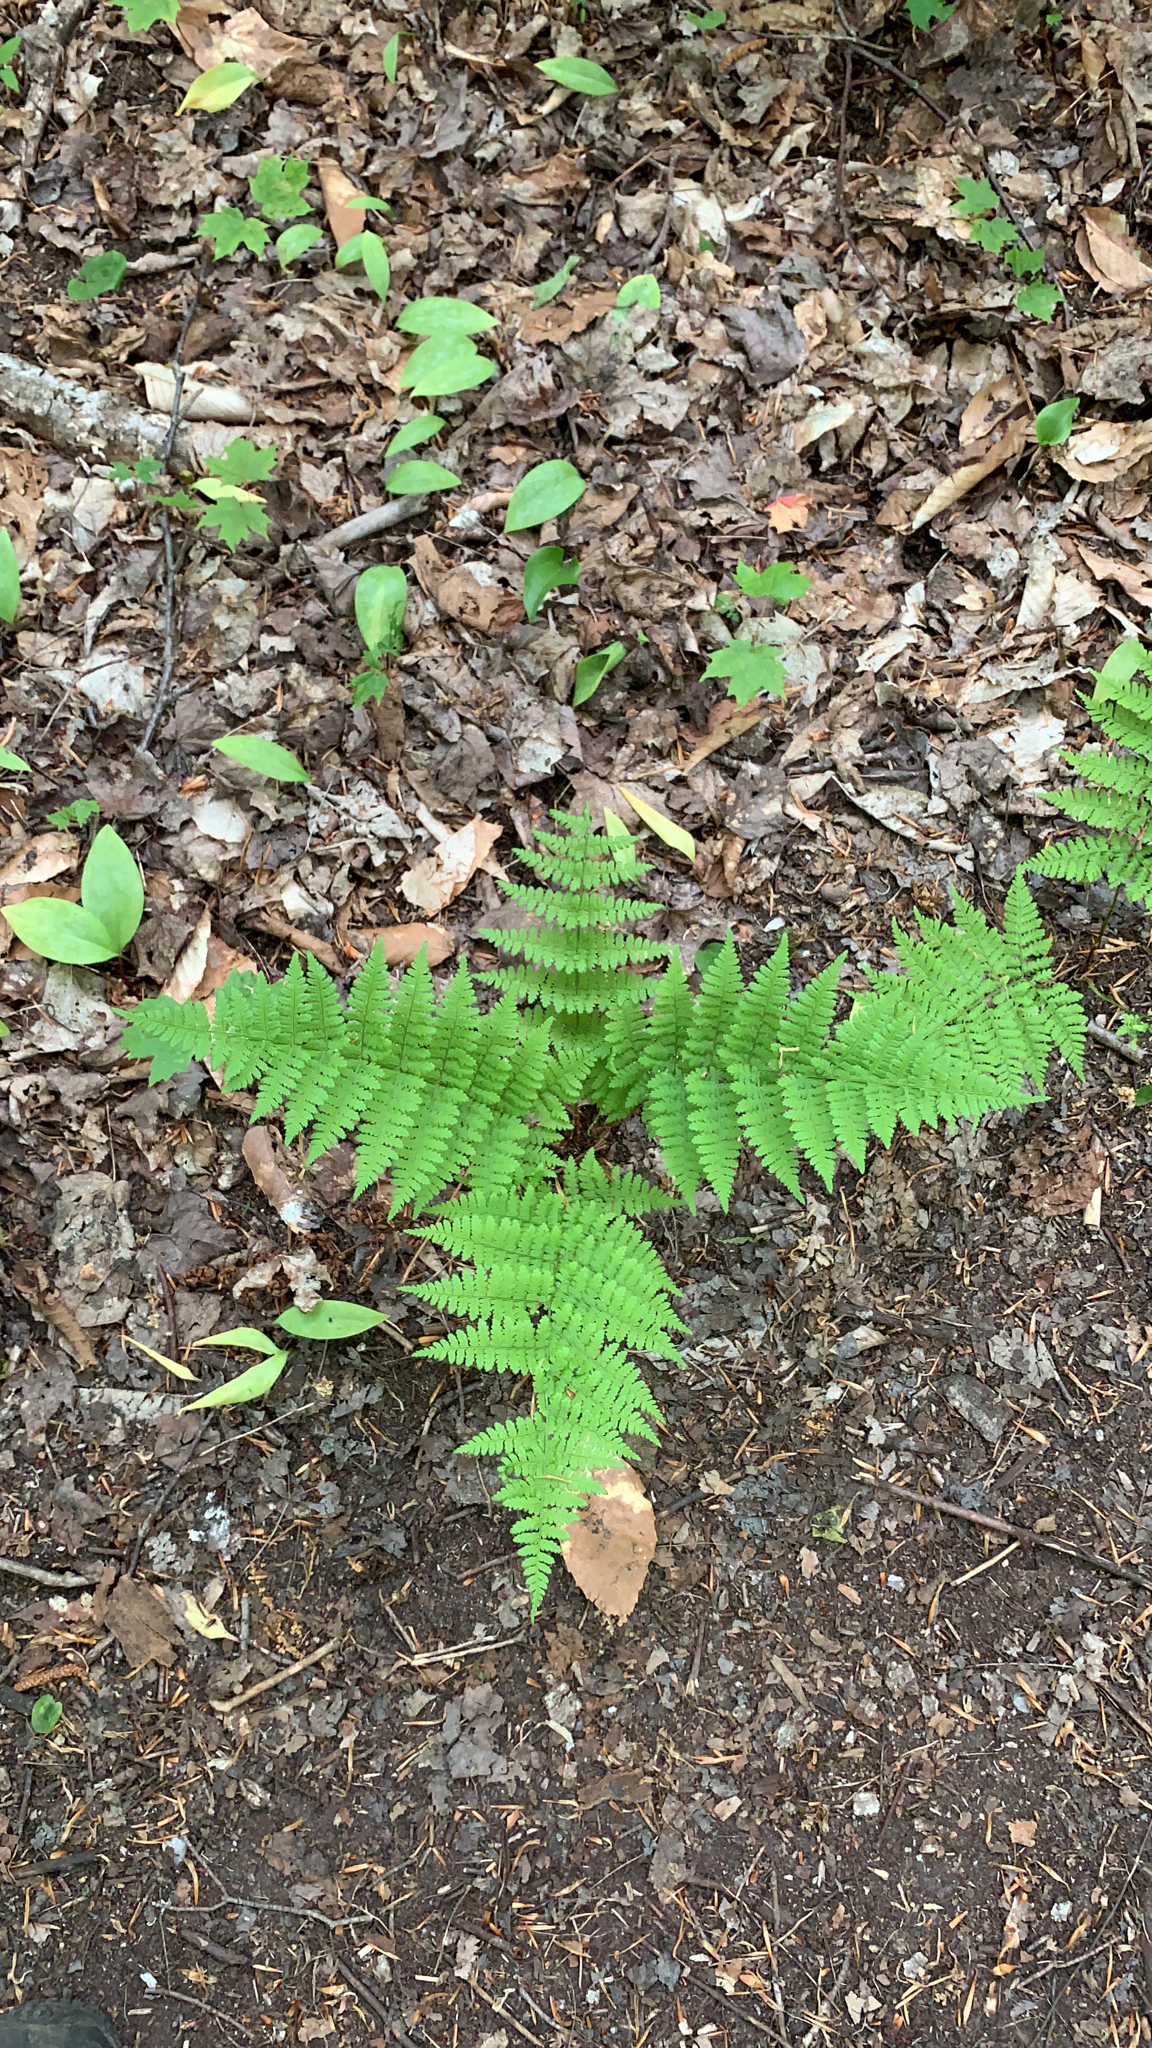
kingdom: Plantae
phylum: Tracheophyta
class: Polypodiopsida
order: Polypodiales
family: Dryopteridaceae
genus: Dryopteris
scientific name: Dryopteris intermedia
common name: Evergreen wood fern
